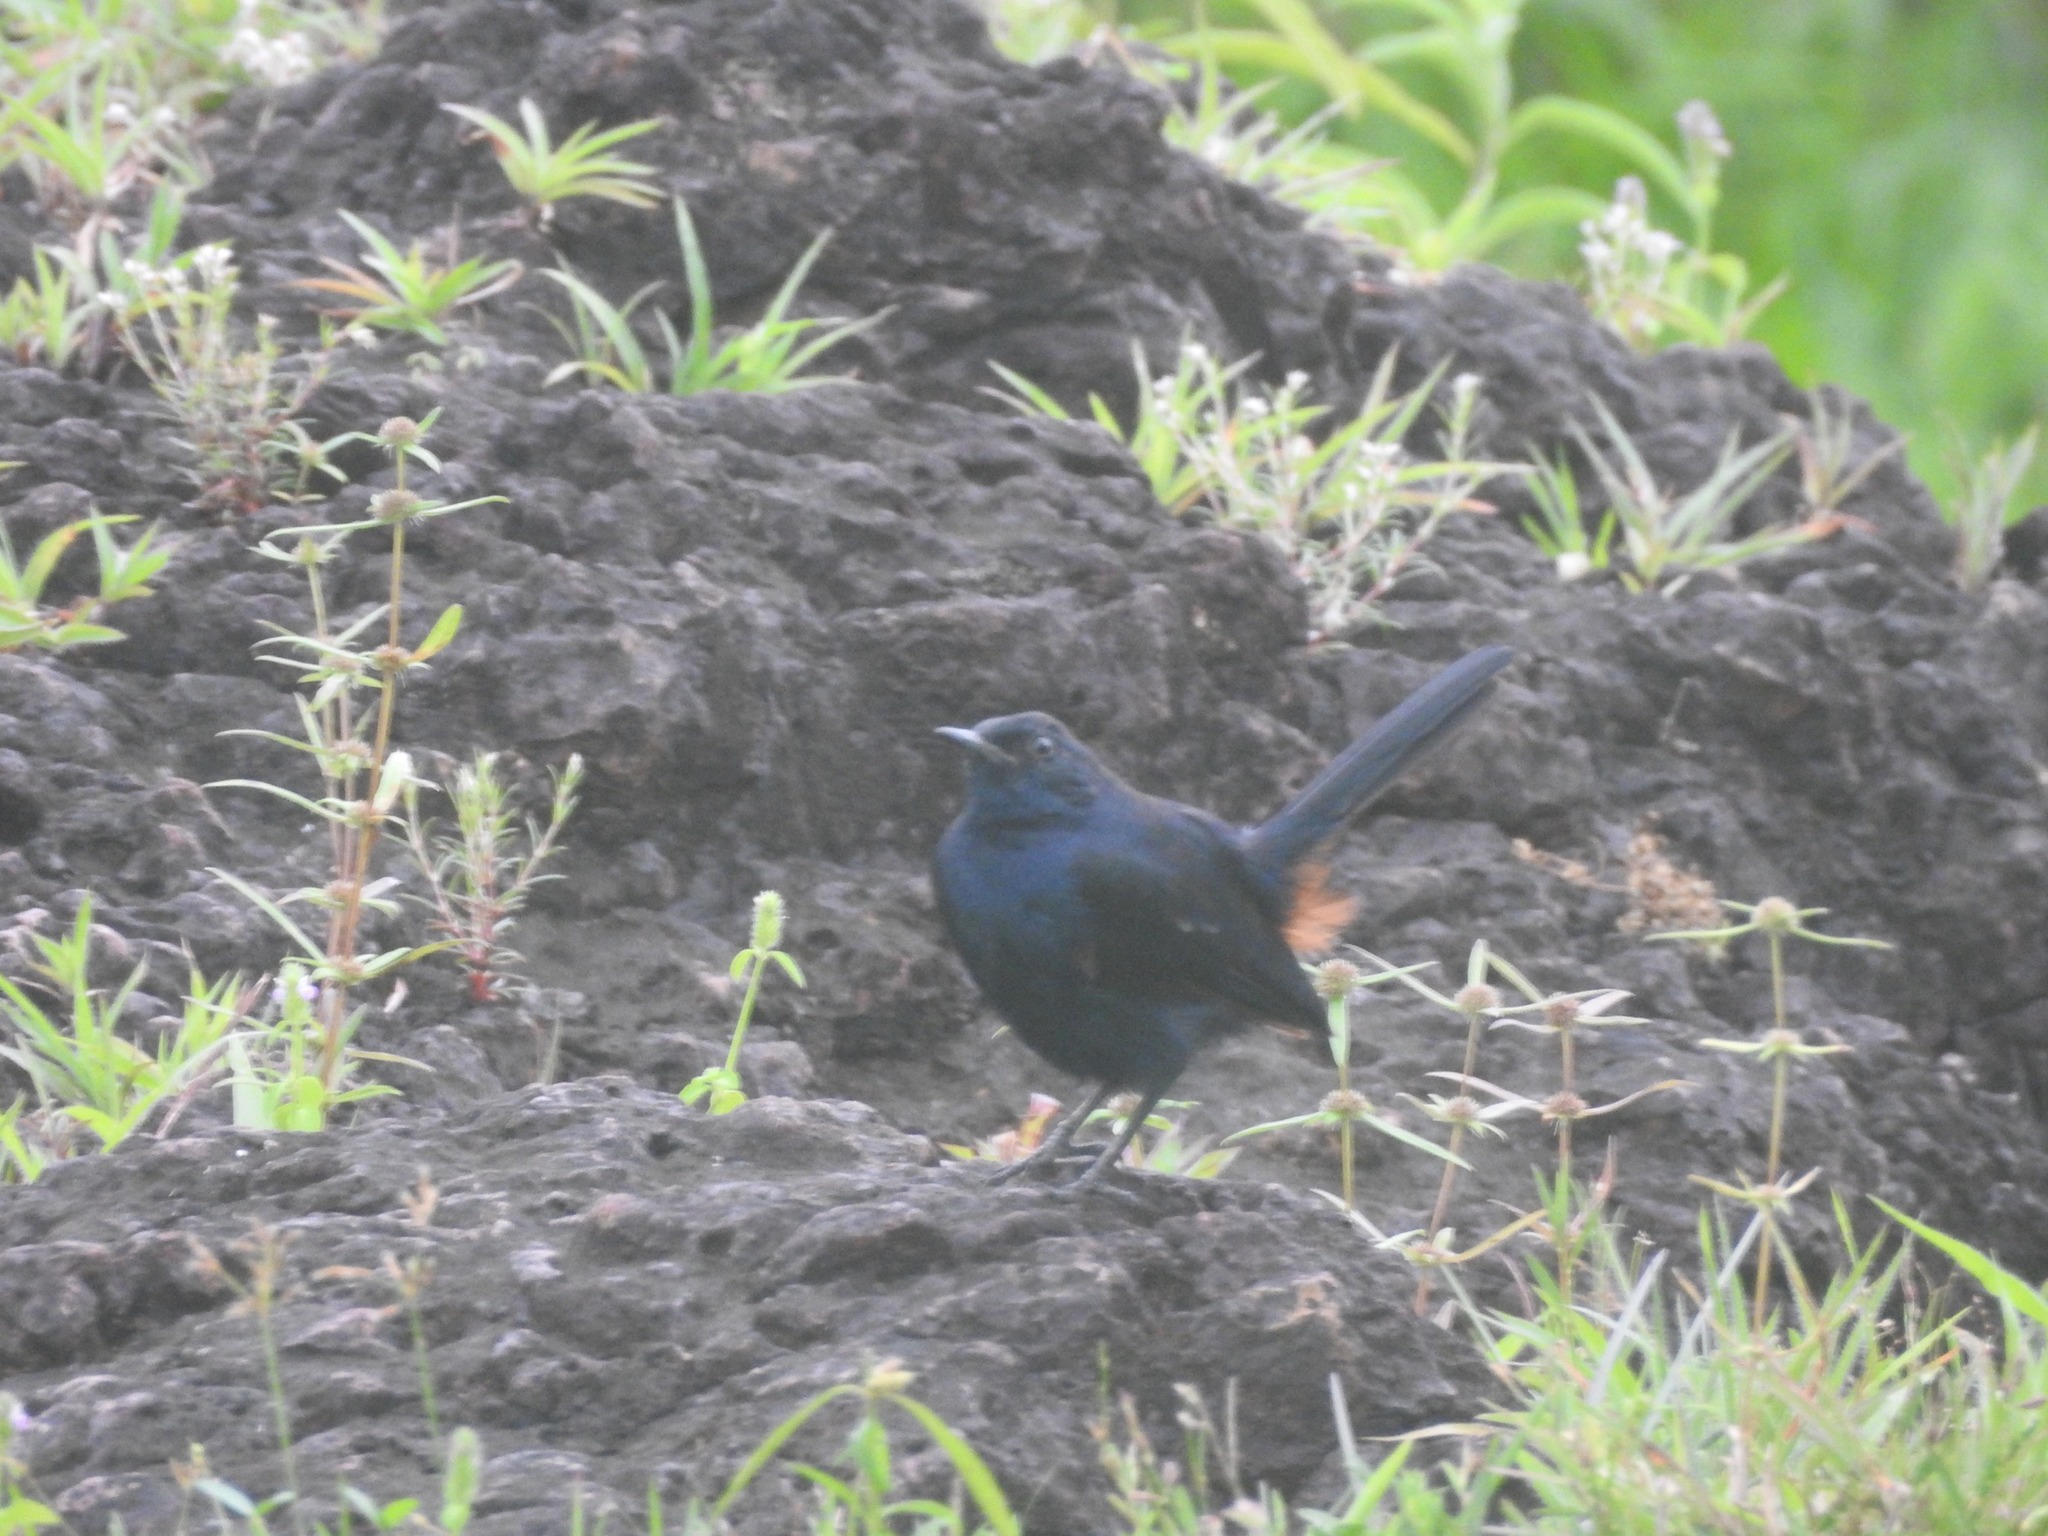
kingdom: Animalia
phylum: Chordata
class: Aves
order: Passeriformes
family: Muscicapidae
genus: Saxicoloides
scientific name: Saxicoloides fulicatus
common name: Indian robin
